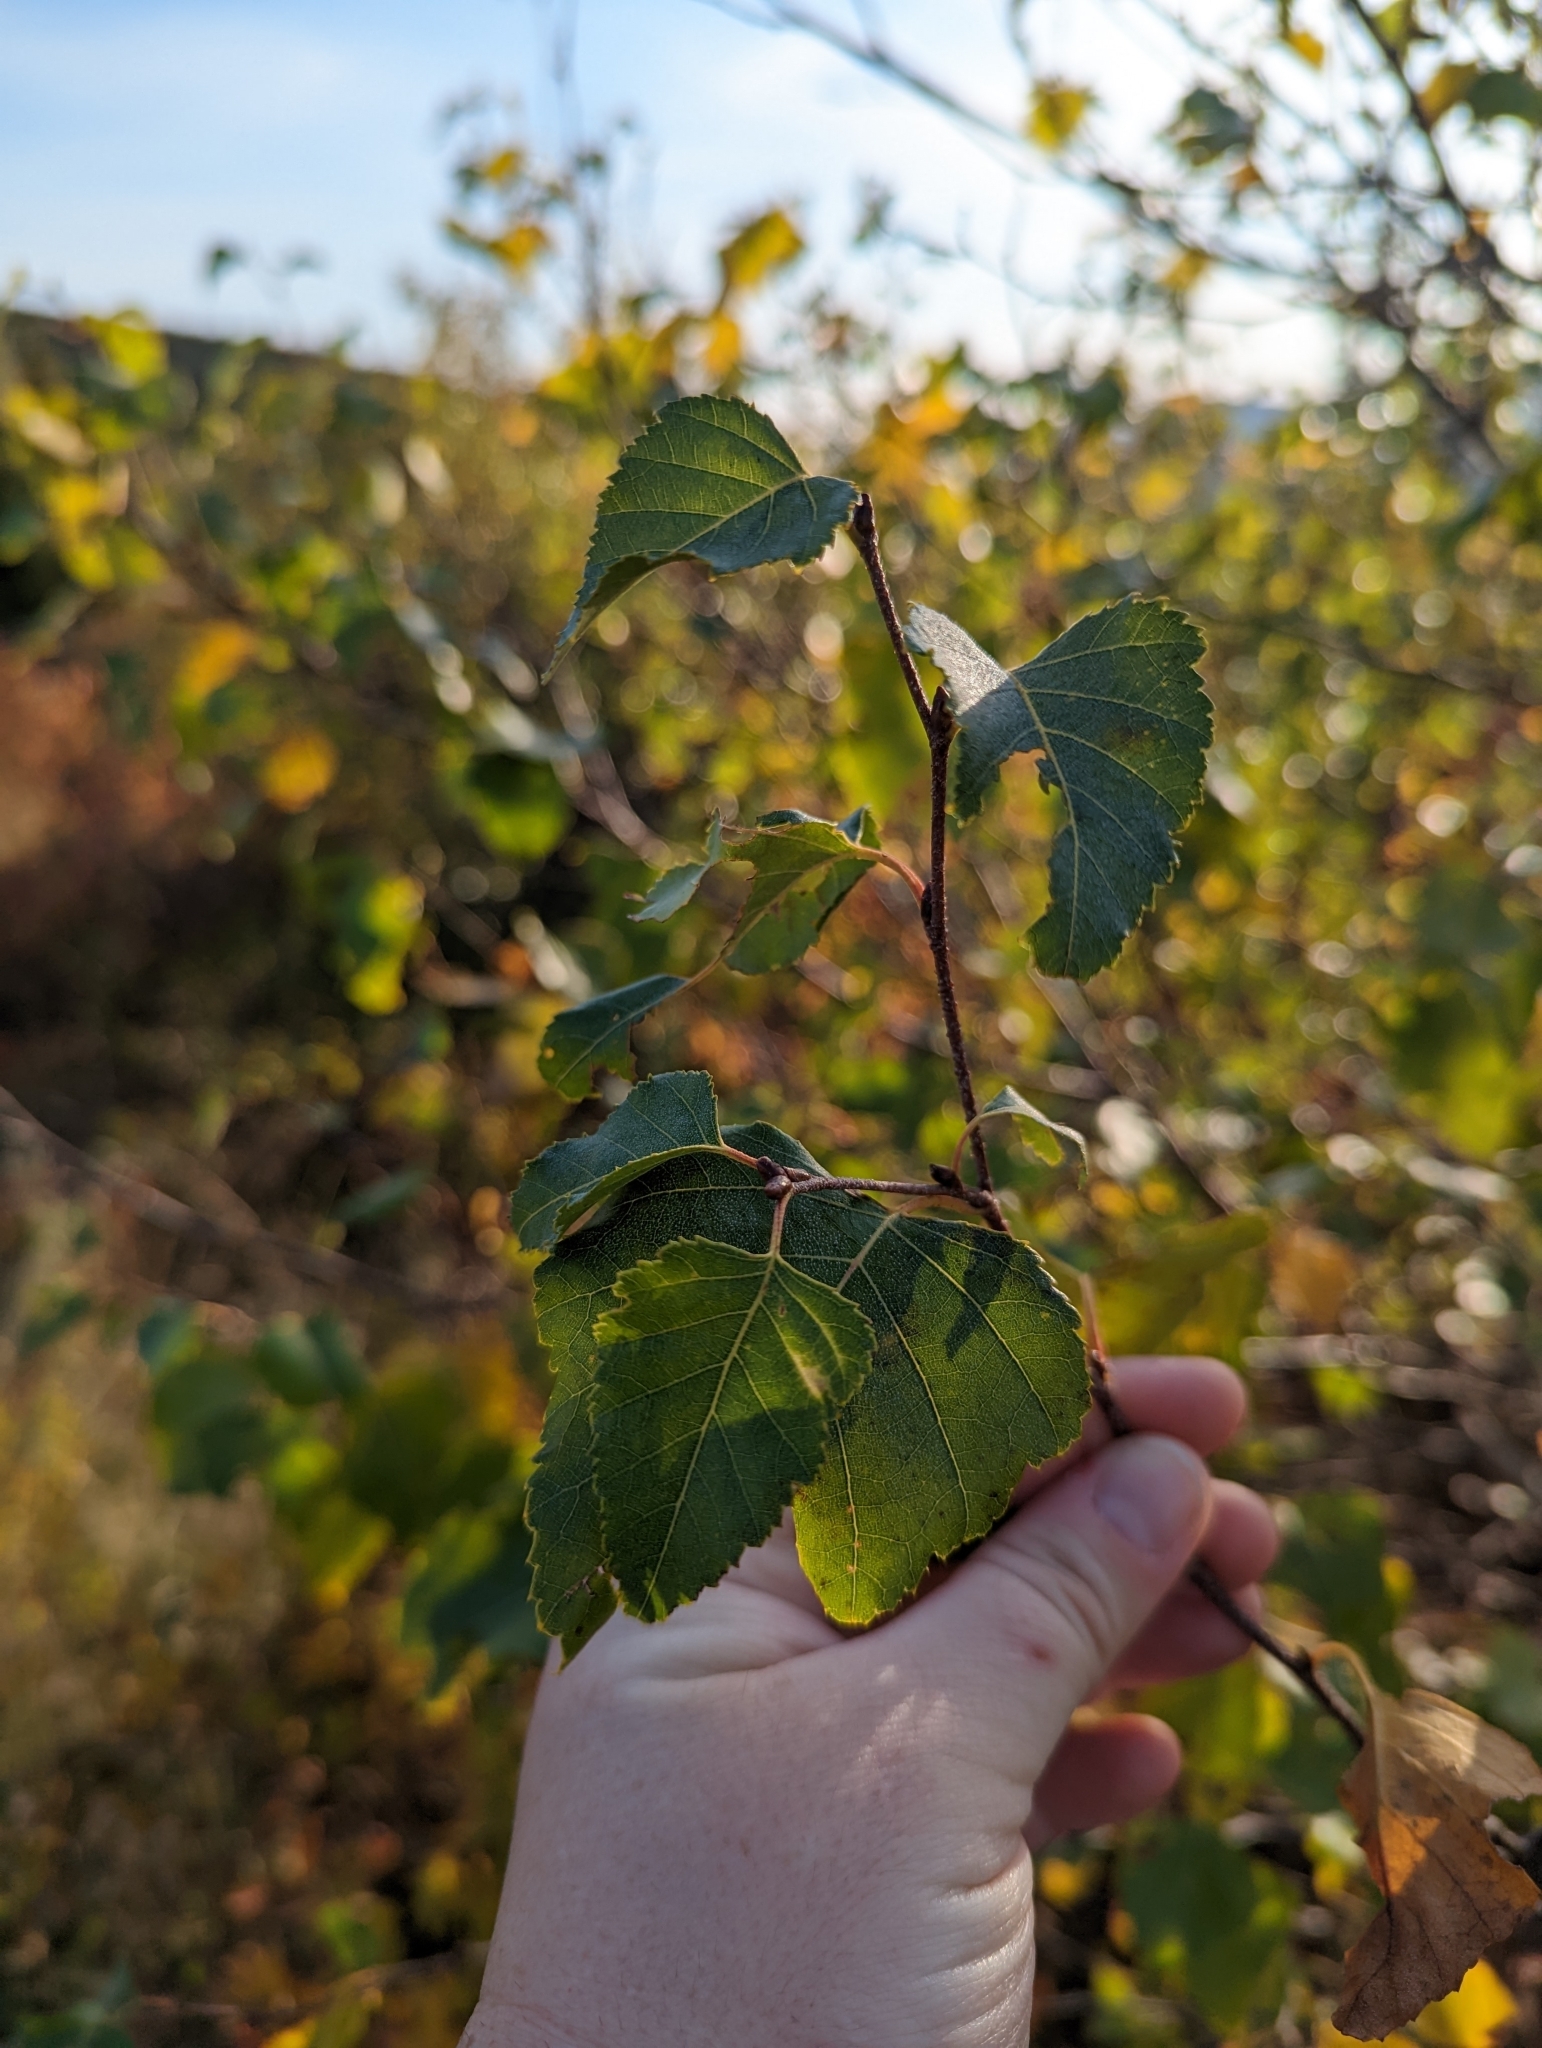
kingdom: Plantae
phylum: Tracheophyta
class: Magnoliopsida
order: Fagales
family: Betulaceae
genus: Betula
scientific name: Betula populifolia
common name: Fire birch
